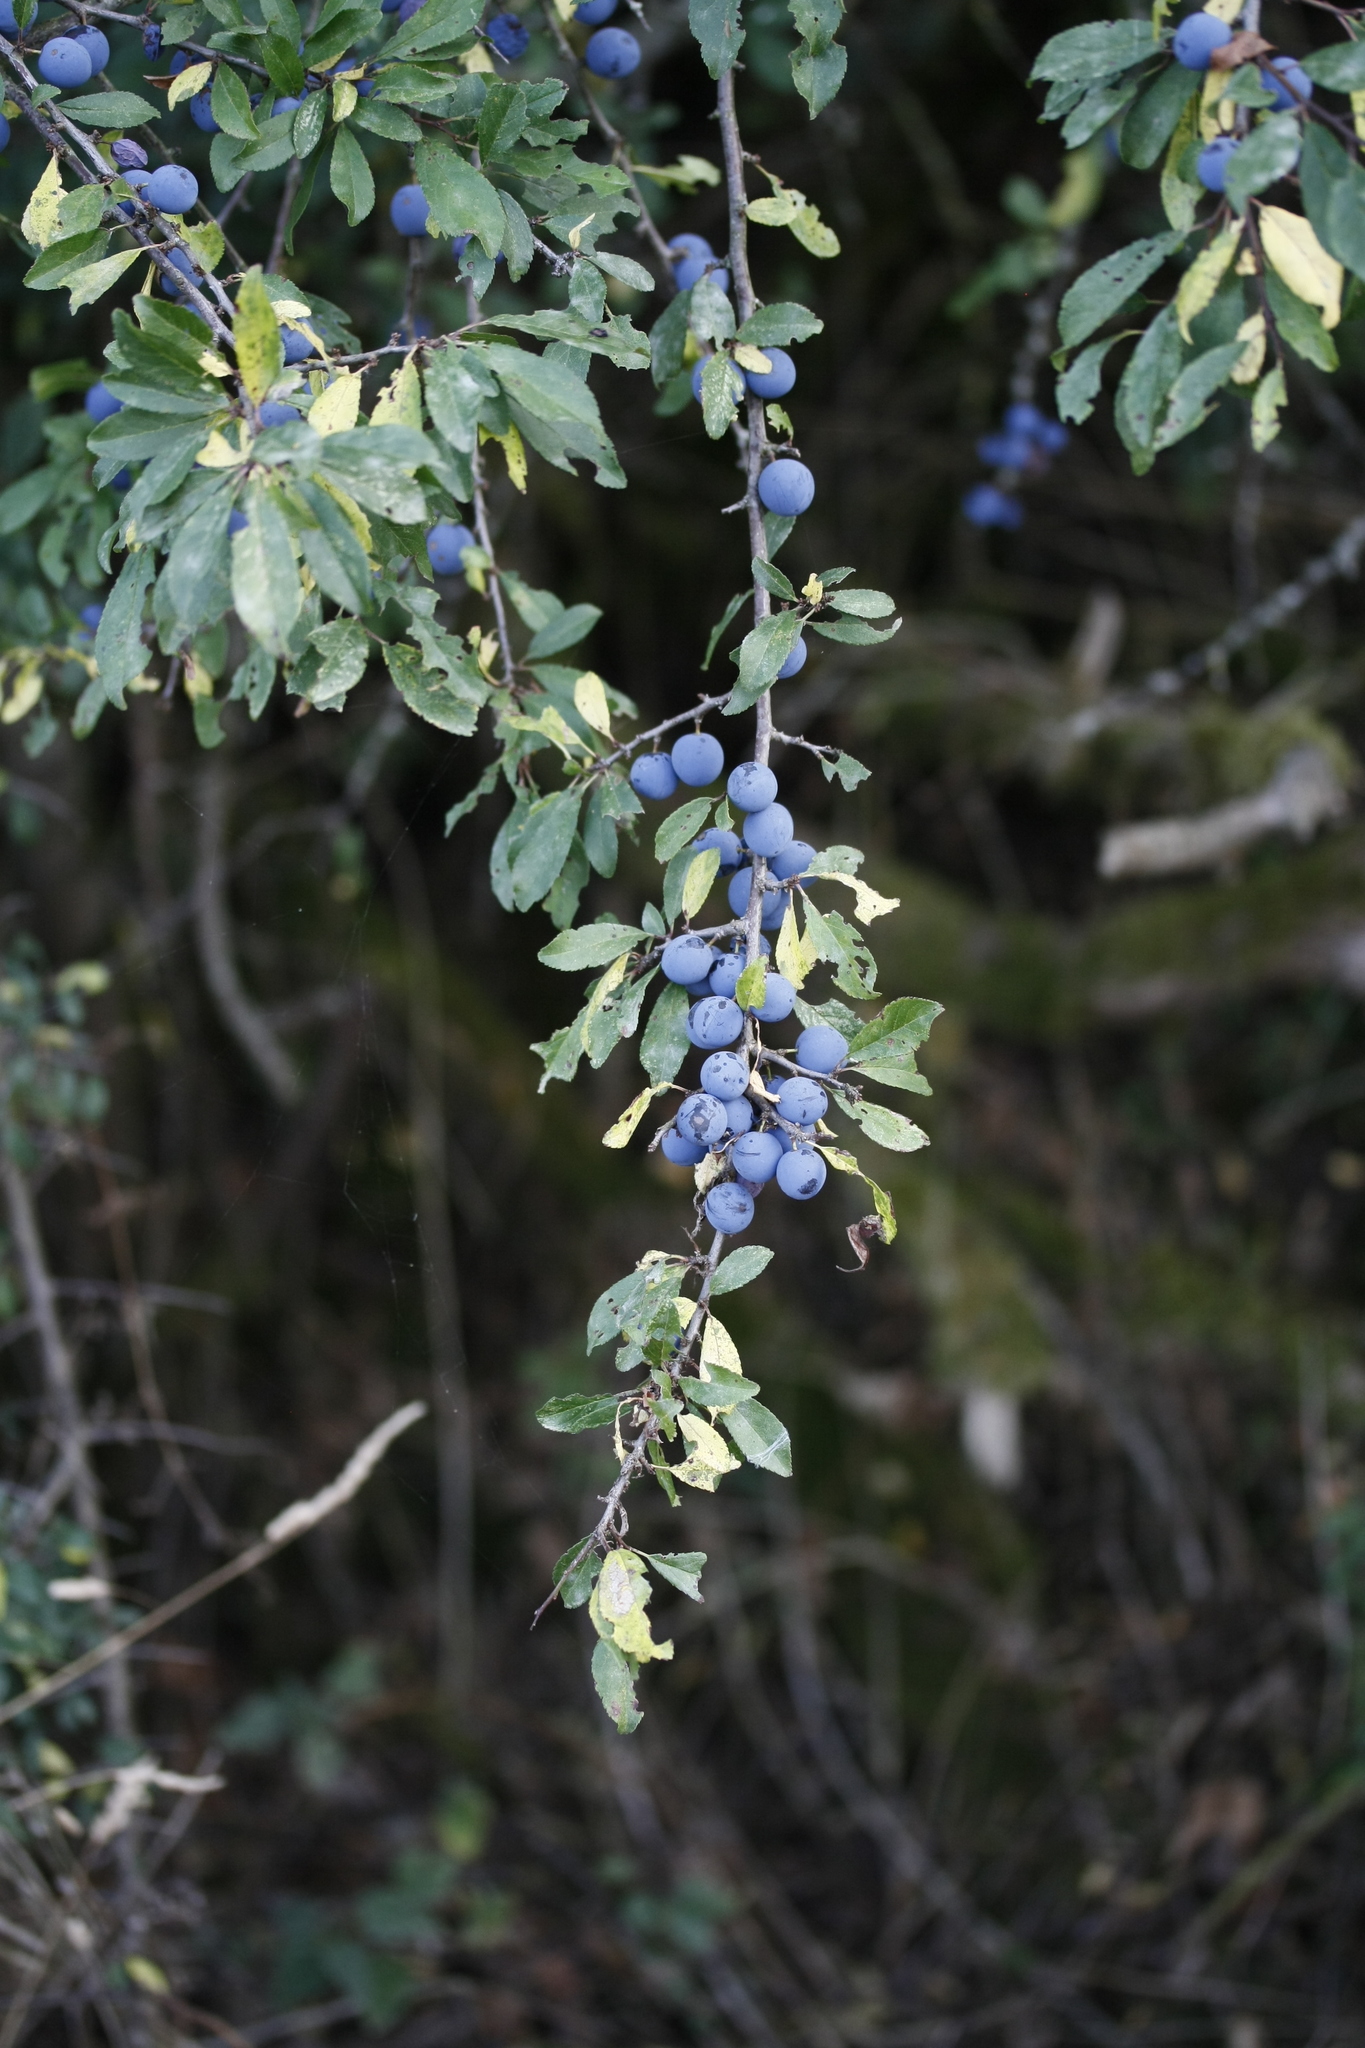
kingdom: Plantae
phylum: Tracheophyta
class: Magnoliopsida
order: Rosales
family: Rosaceae
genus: Prunus
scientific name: Prunus spinosa
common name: Blackthorn
